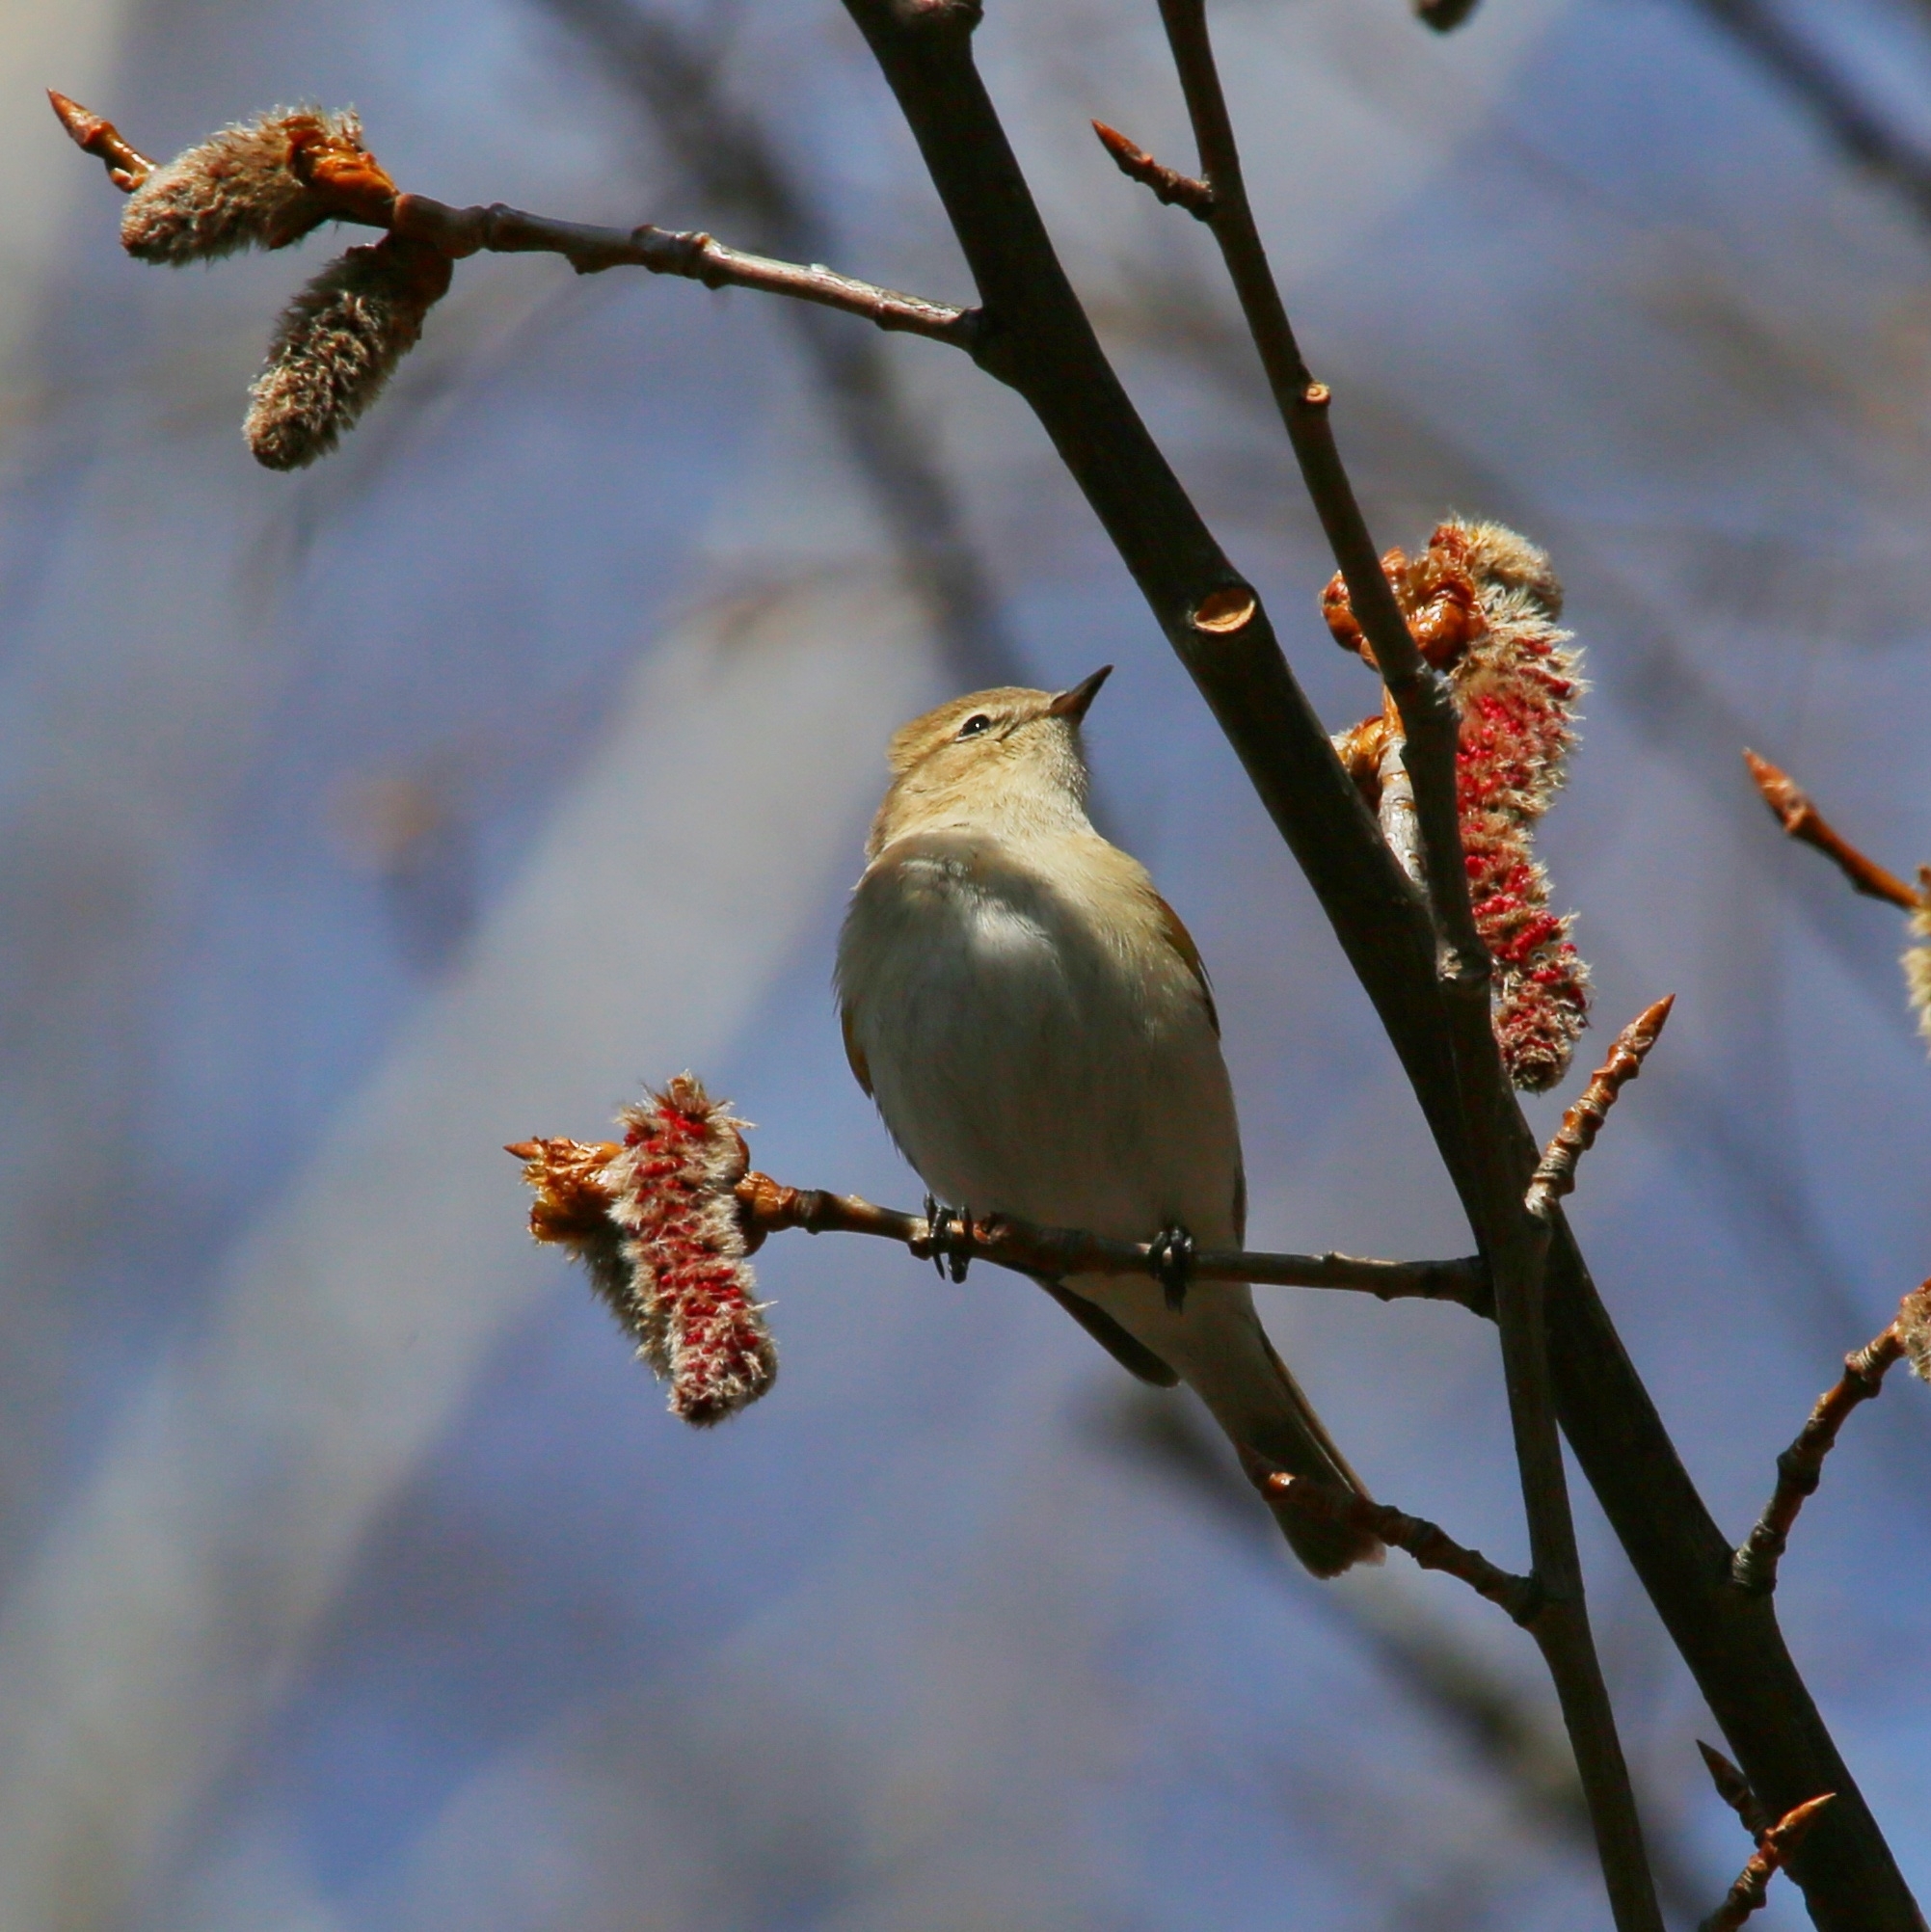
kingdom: Animalia
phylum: Chordata
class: Aves
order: Passeriformes
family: Phylloscopidae
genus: Phylloscopus
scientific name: Phylloscopus collybita
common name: Common chiffchaff
